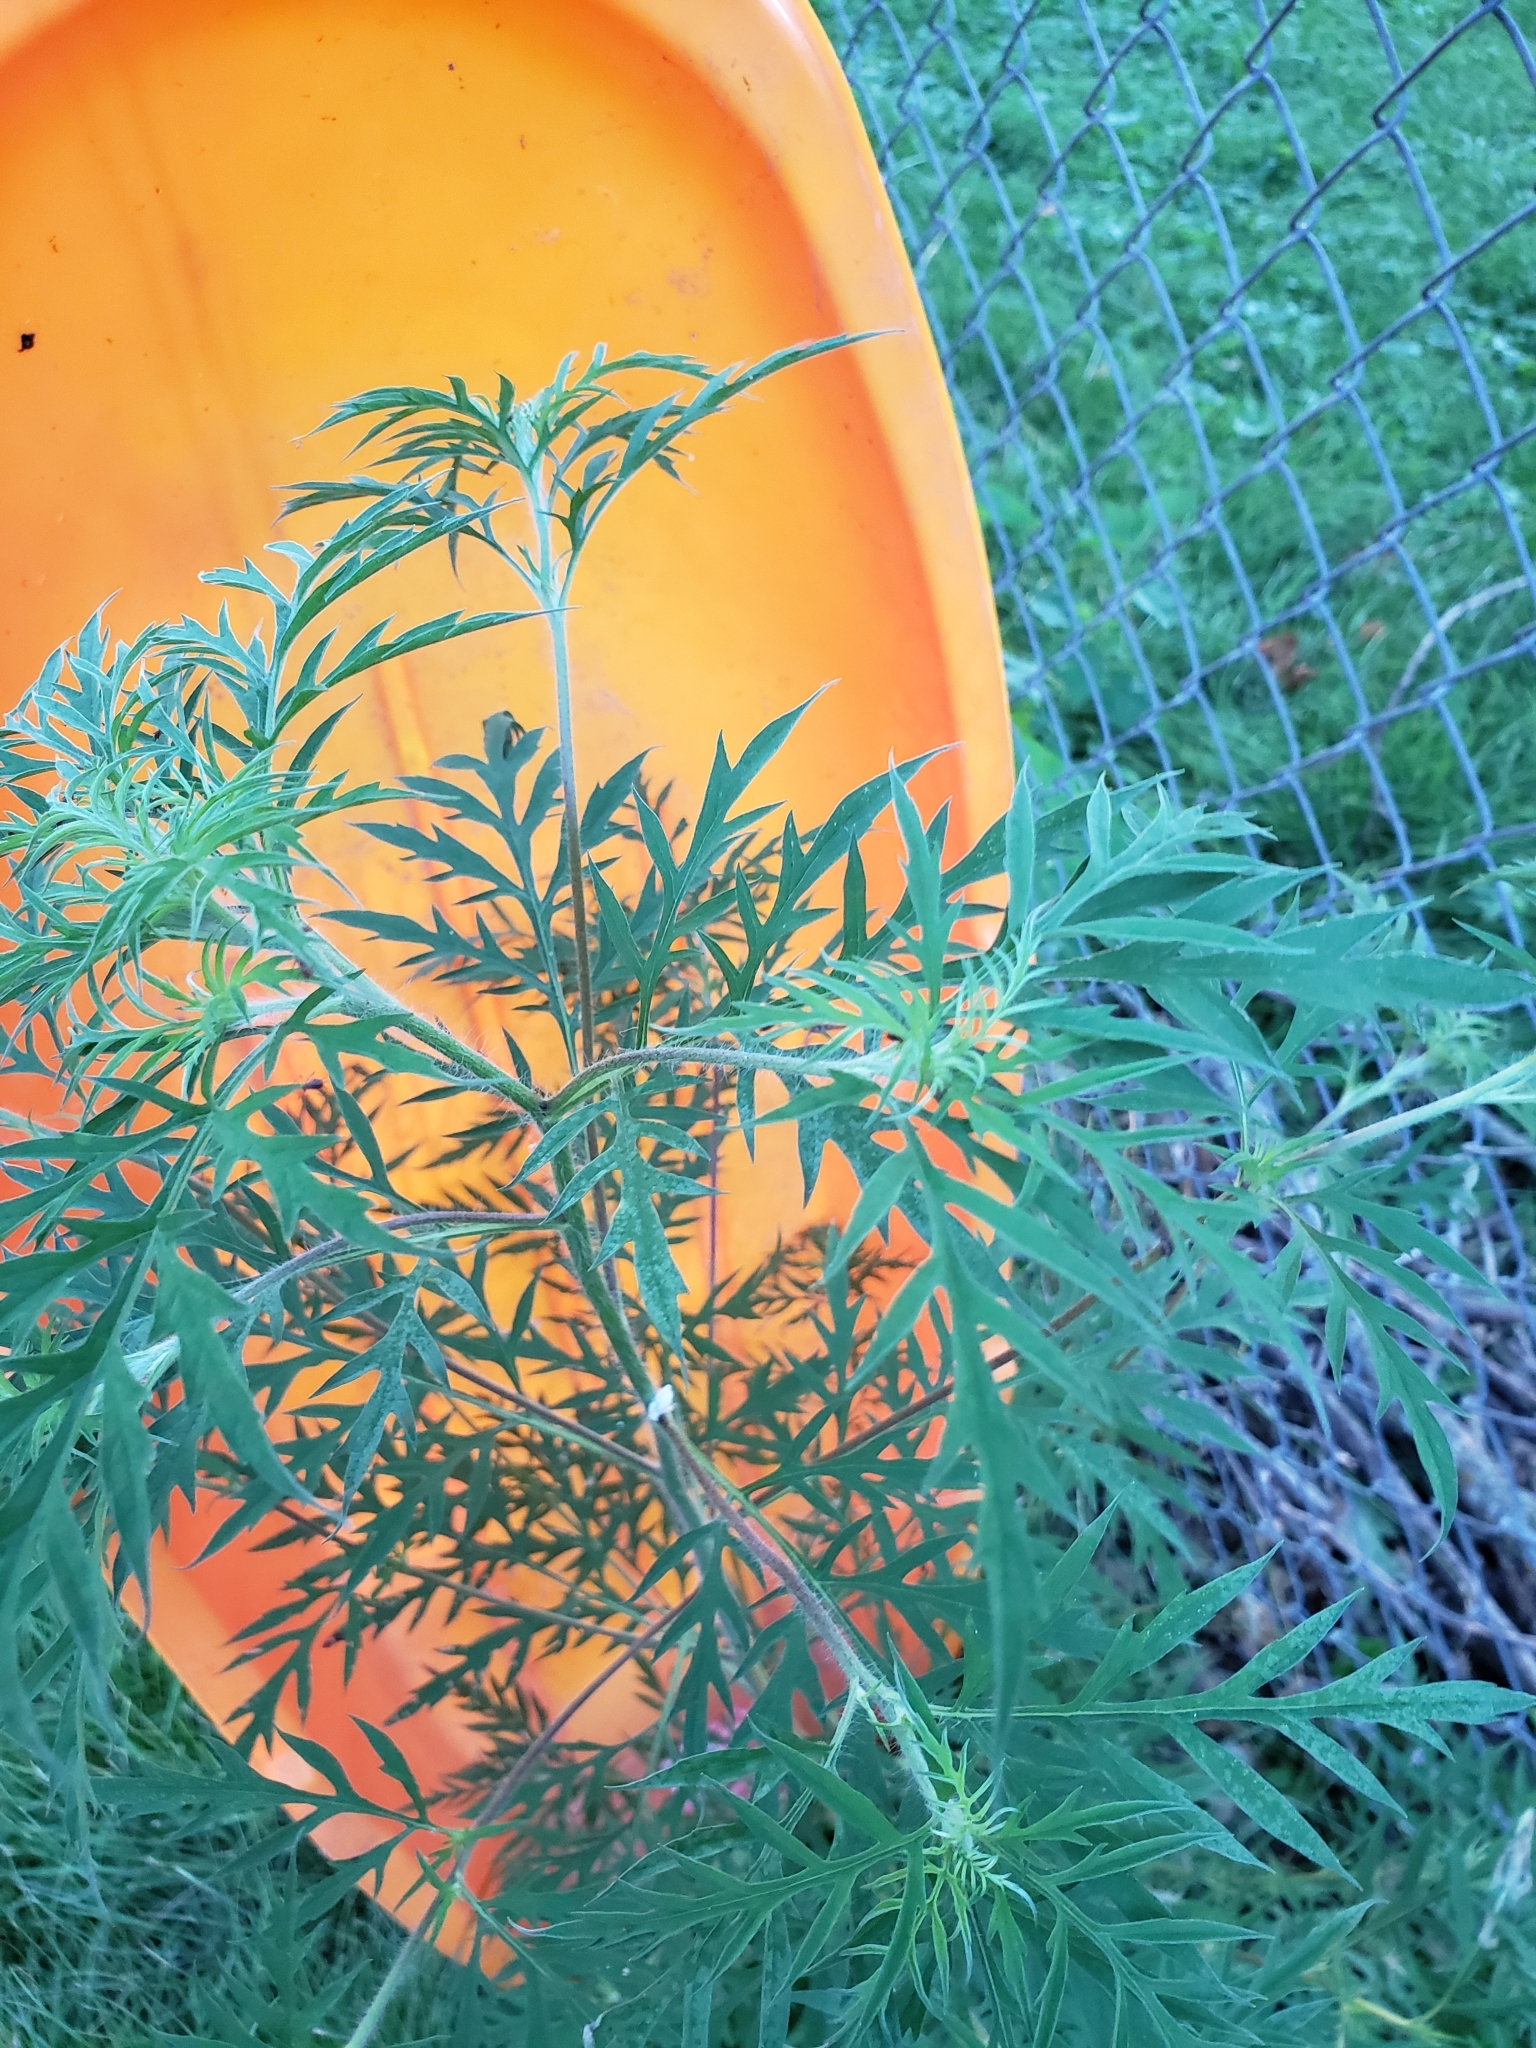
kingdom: Plantae
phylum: Tracheophyta
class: Magnoliopsida
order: Asterales
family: Asteraceae
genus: Ambrosia
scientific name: Ambrosia artemisiifolia
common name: Annual ragweed
